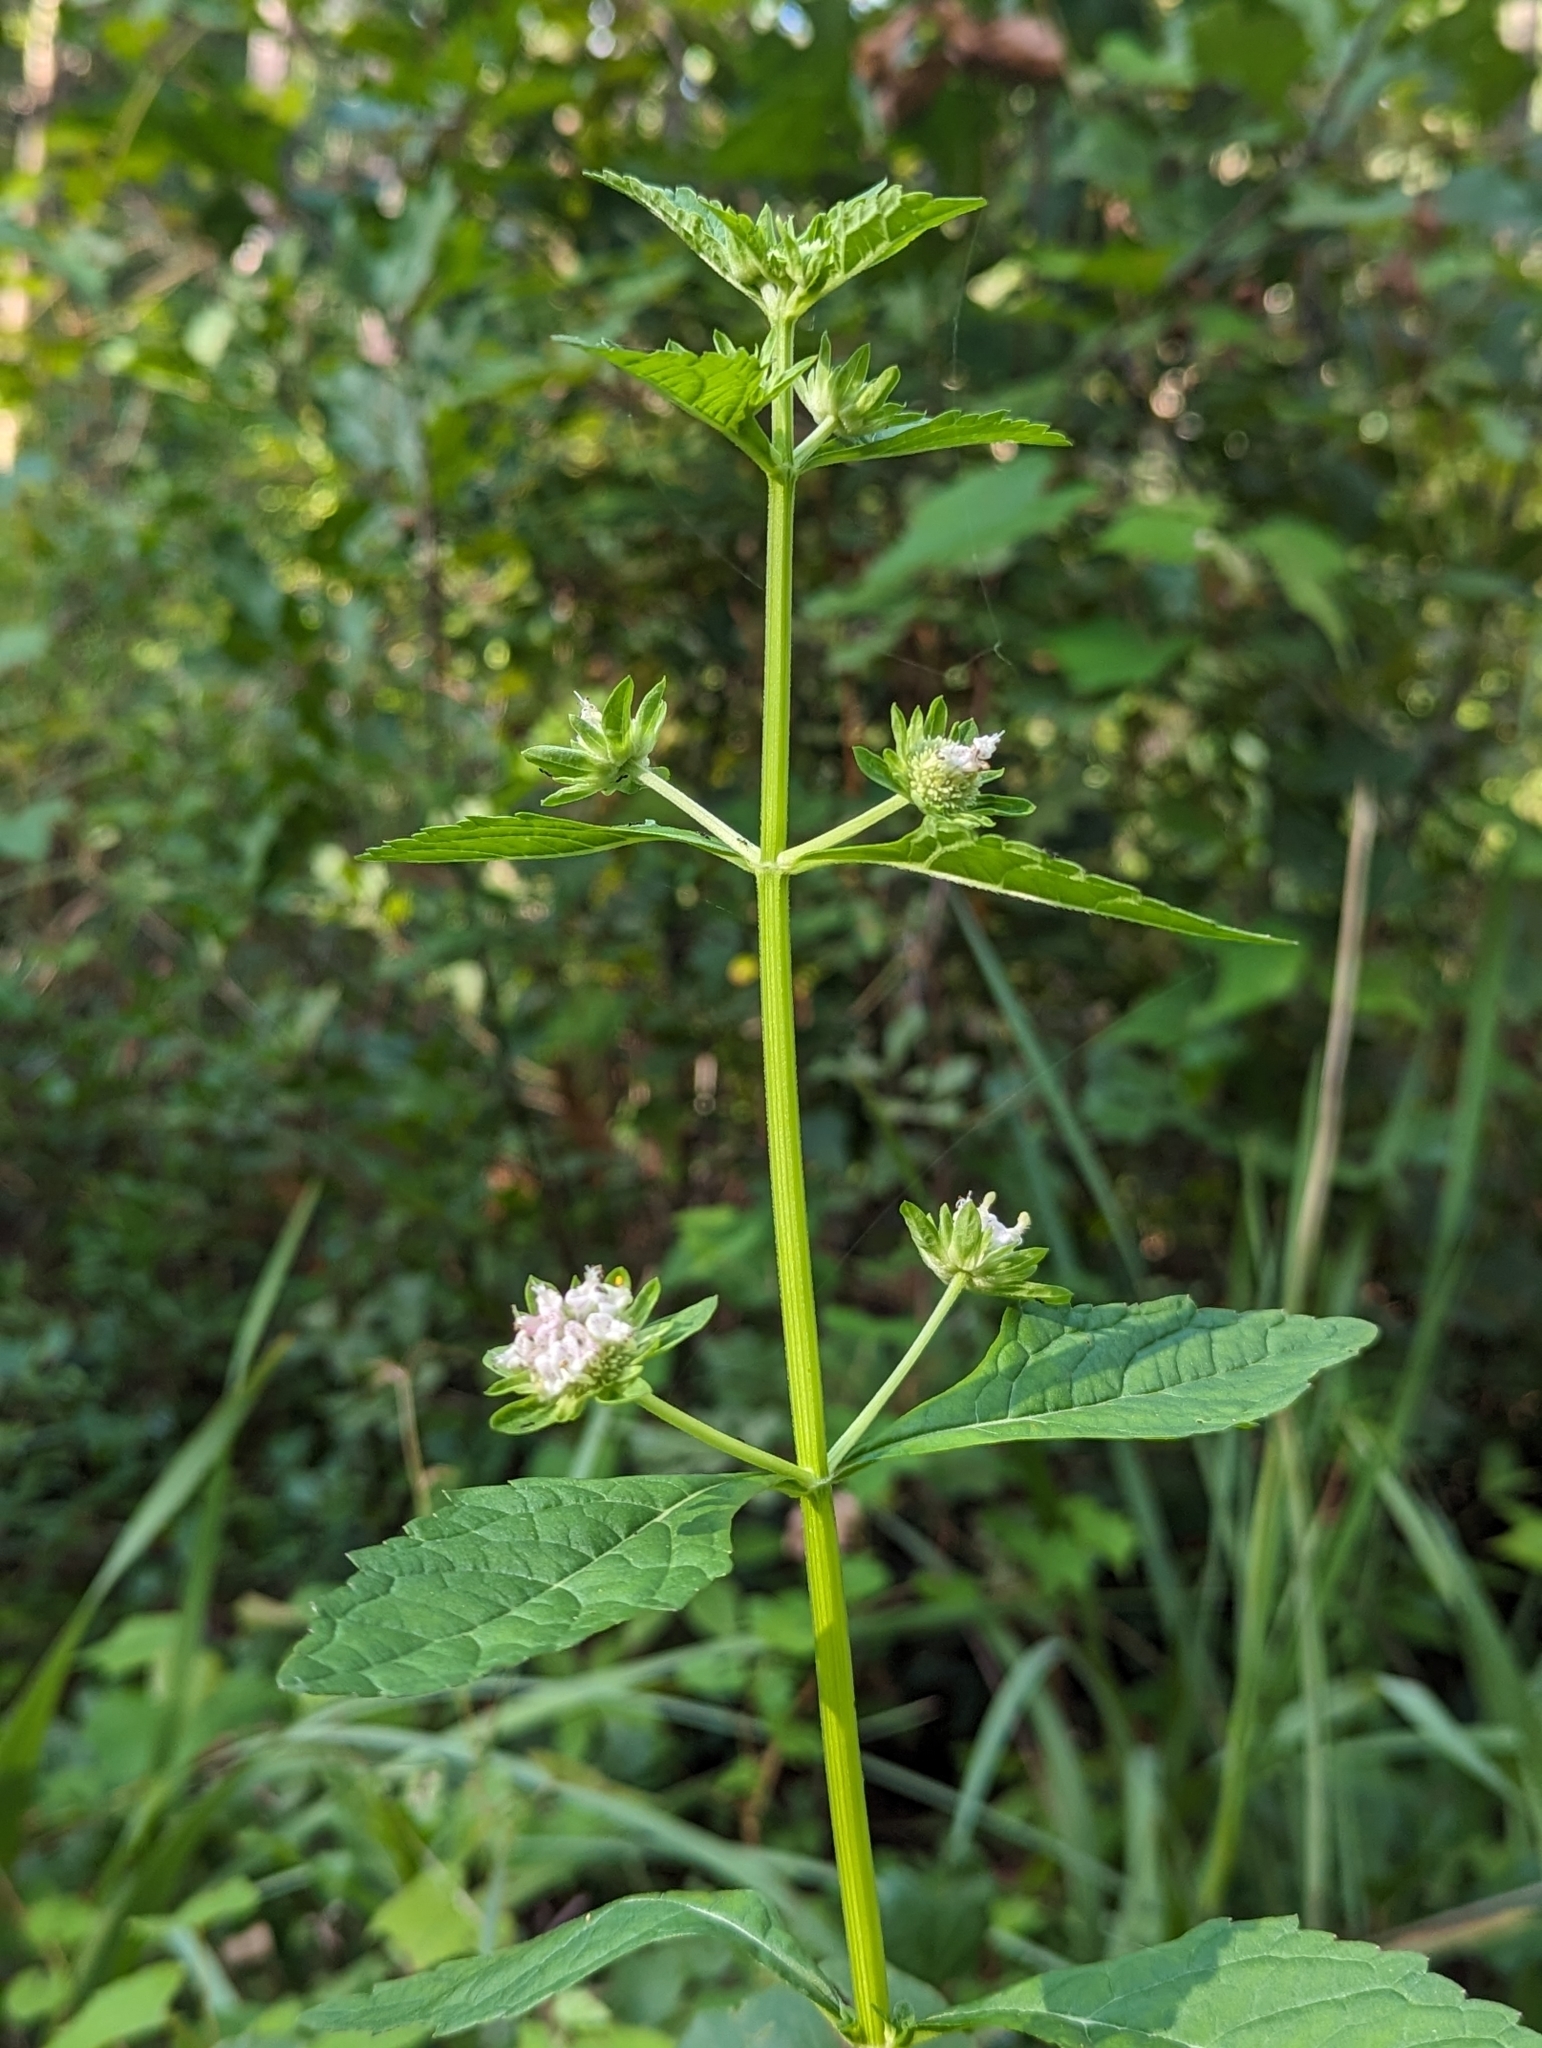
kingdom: Plantae
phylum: Tracheophyta
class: Magnoliopsida
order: Lamiales
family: Lamiaceae
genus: Hyptis
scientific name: Hyptis alata
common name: Cluster bush-mint
